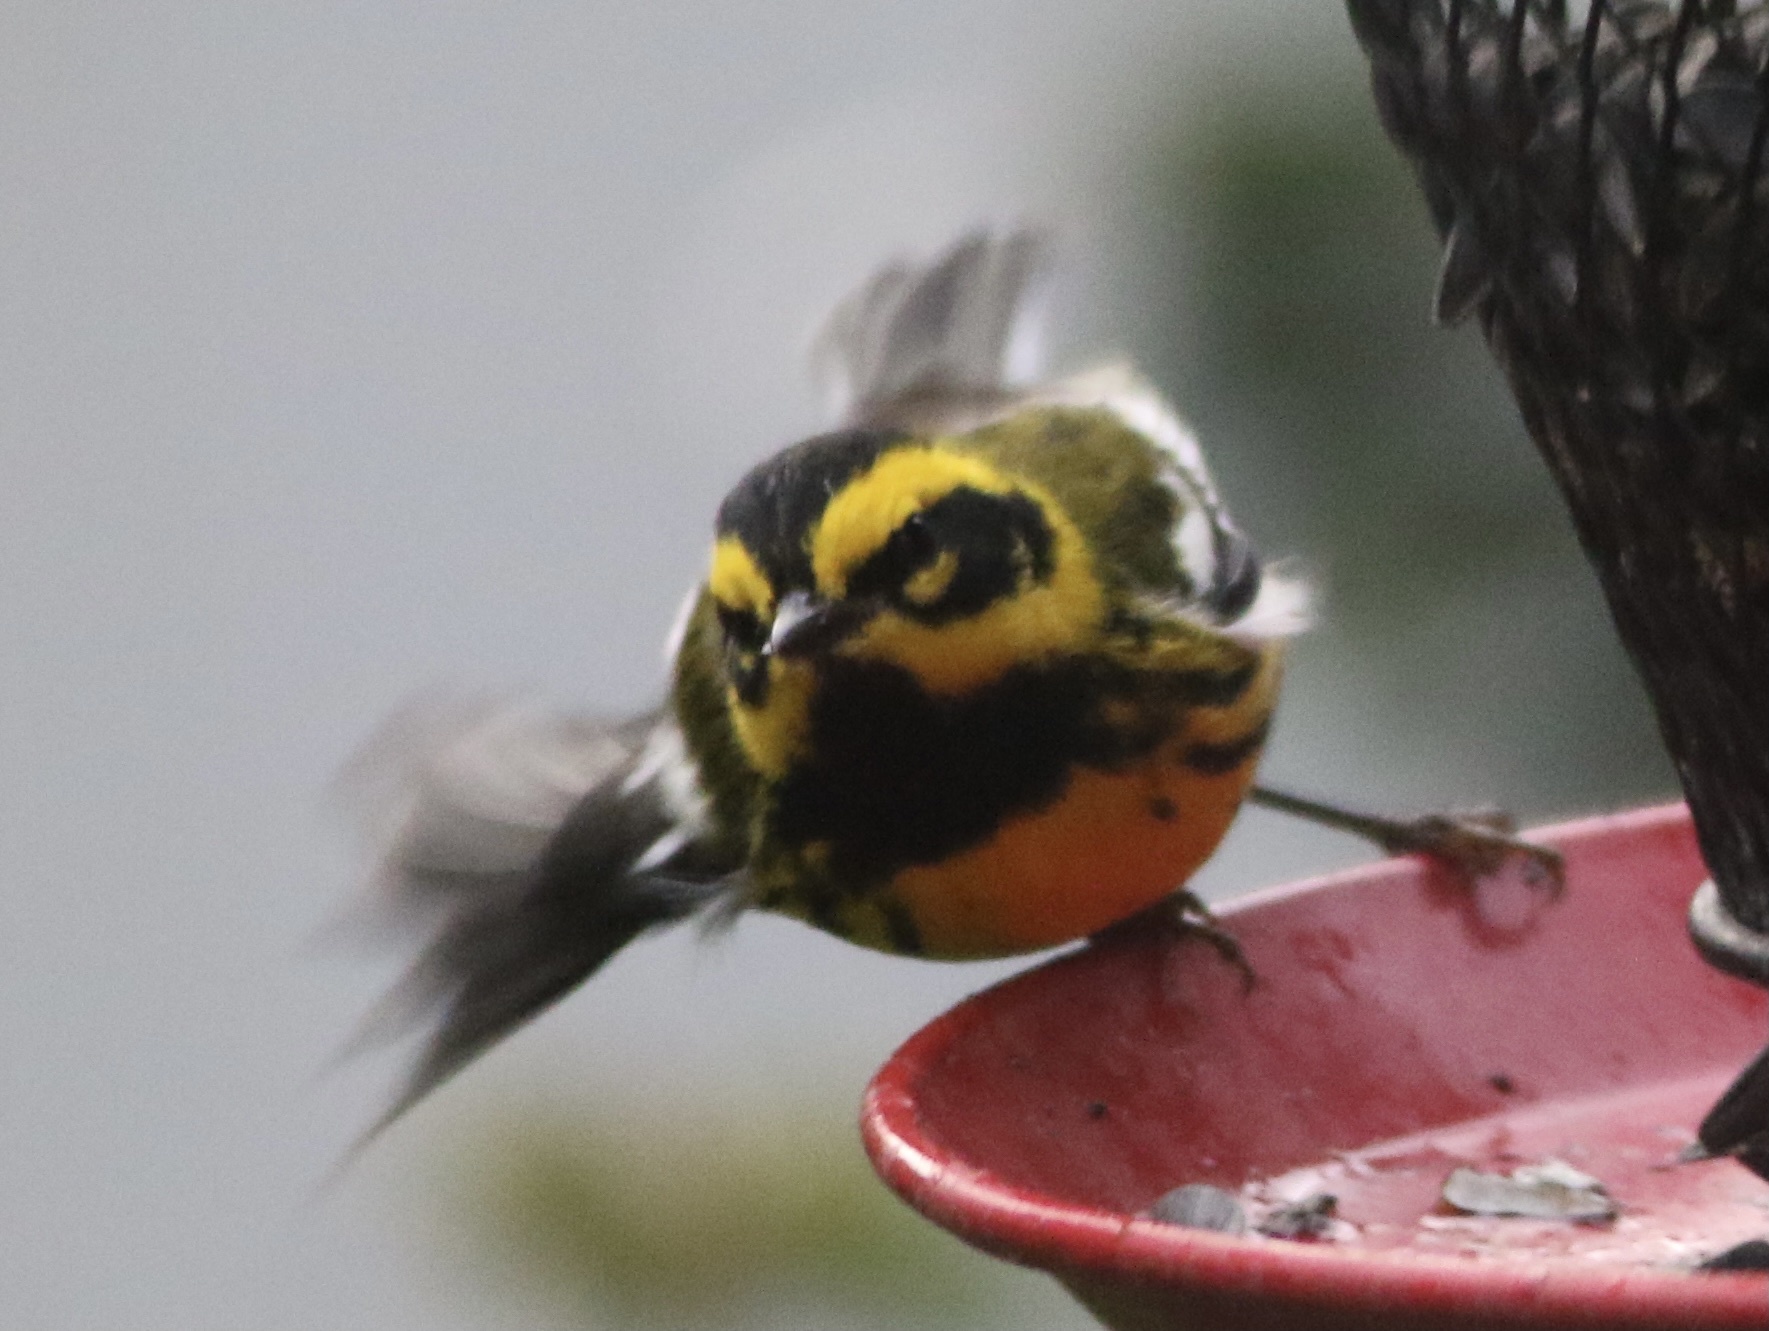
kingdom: Animalia
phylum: Chordata
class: Aves
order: Passeriformes
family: Parulidae
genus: Setophaga
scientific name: Setophaga townsendi
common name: Townsend's warbler
